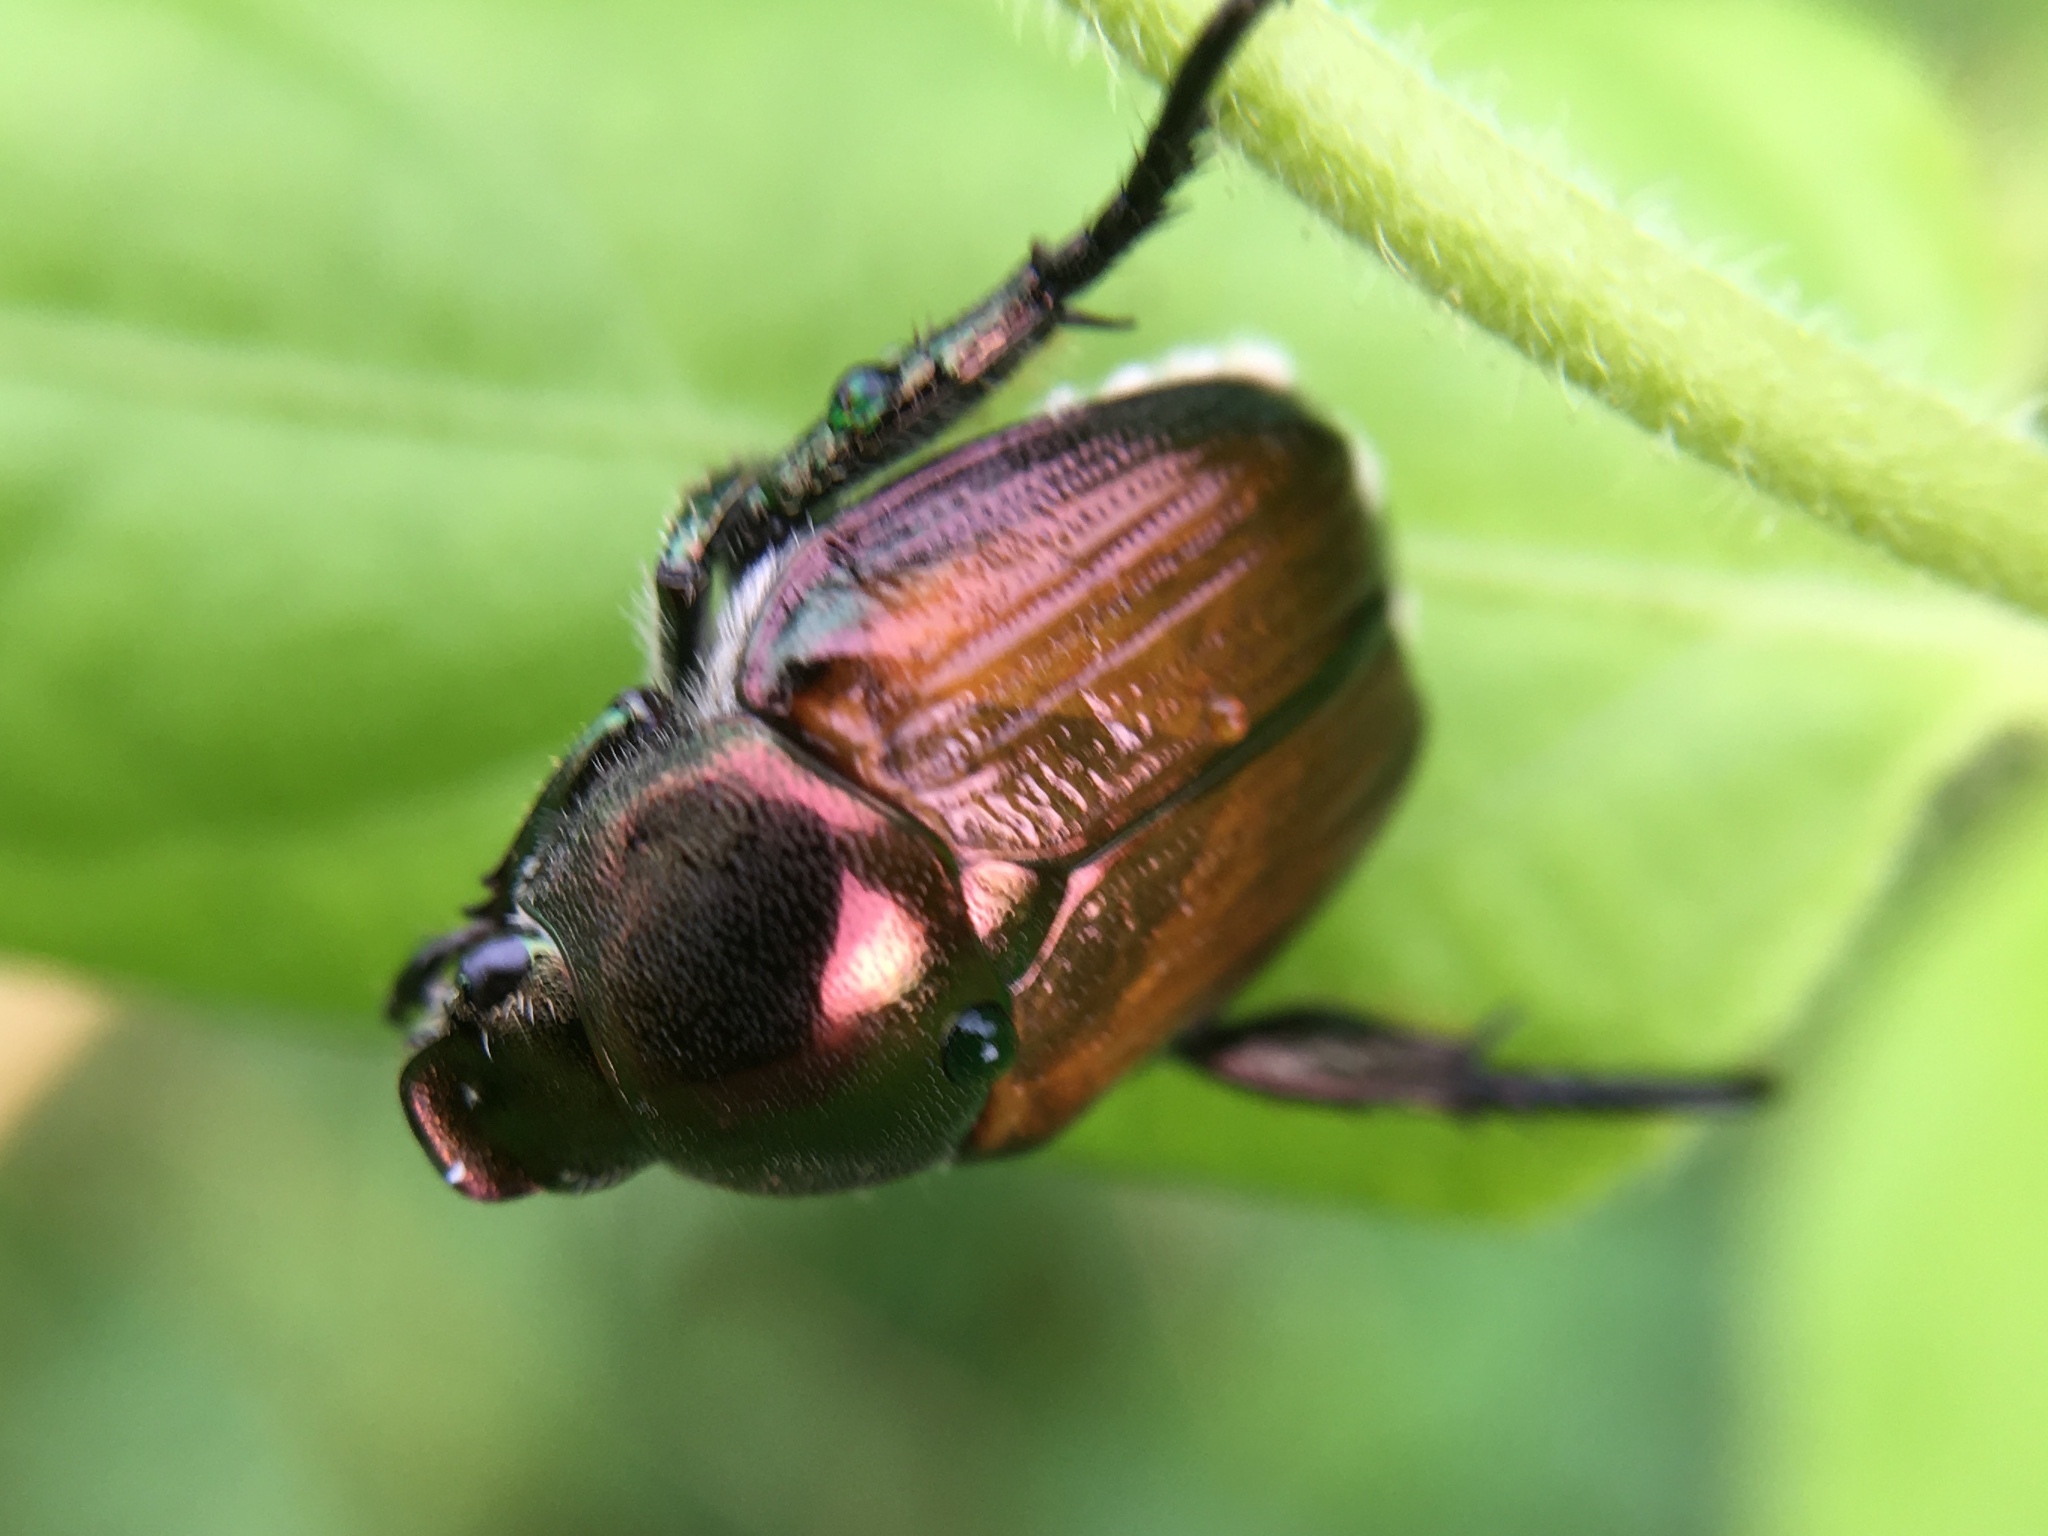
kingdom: Animalia
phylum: Arthropoda
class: Insecta
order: Coleoptera
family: Scarabaeidae
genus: Popillia
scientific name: Popillia japonica
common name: Japanese beetle
